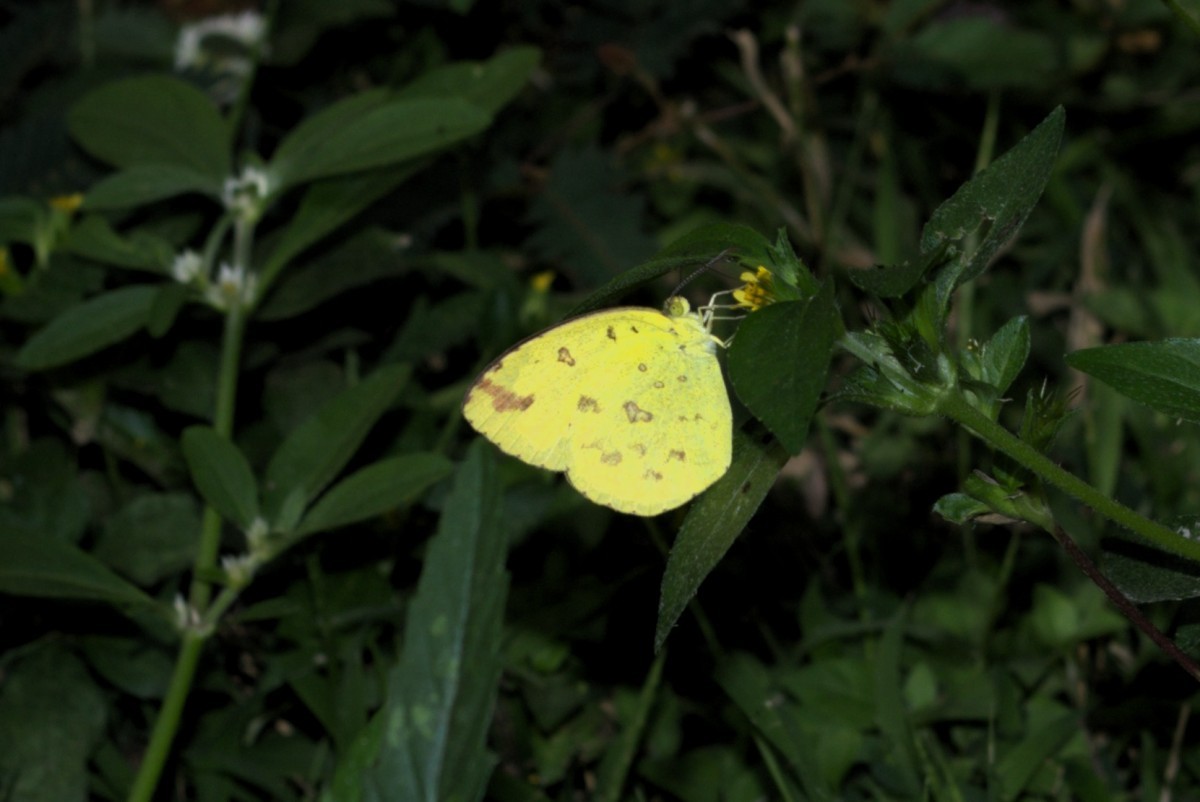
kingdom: Animalia
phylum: Arthropoda
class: Insecta
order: Lepidoptera
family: Pieridae
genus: Eurema
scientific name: Eurema hecabe
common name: Pale grass yellow
